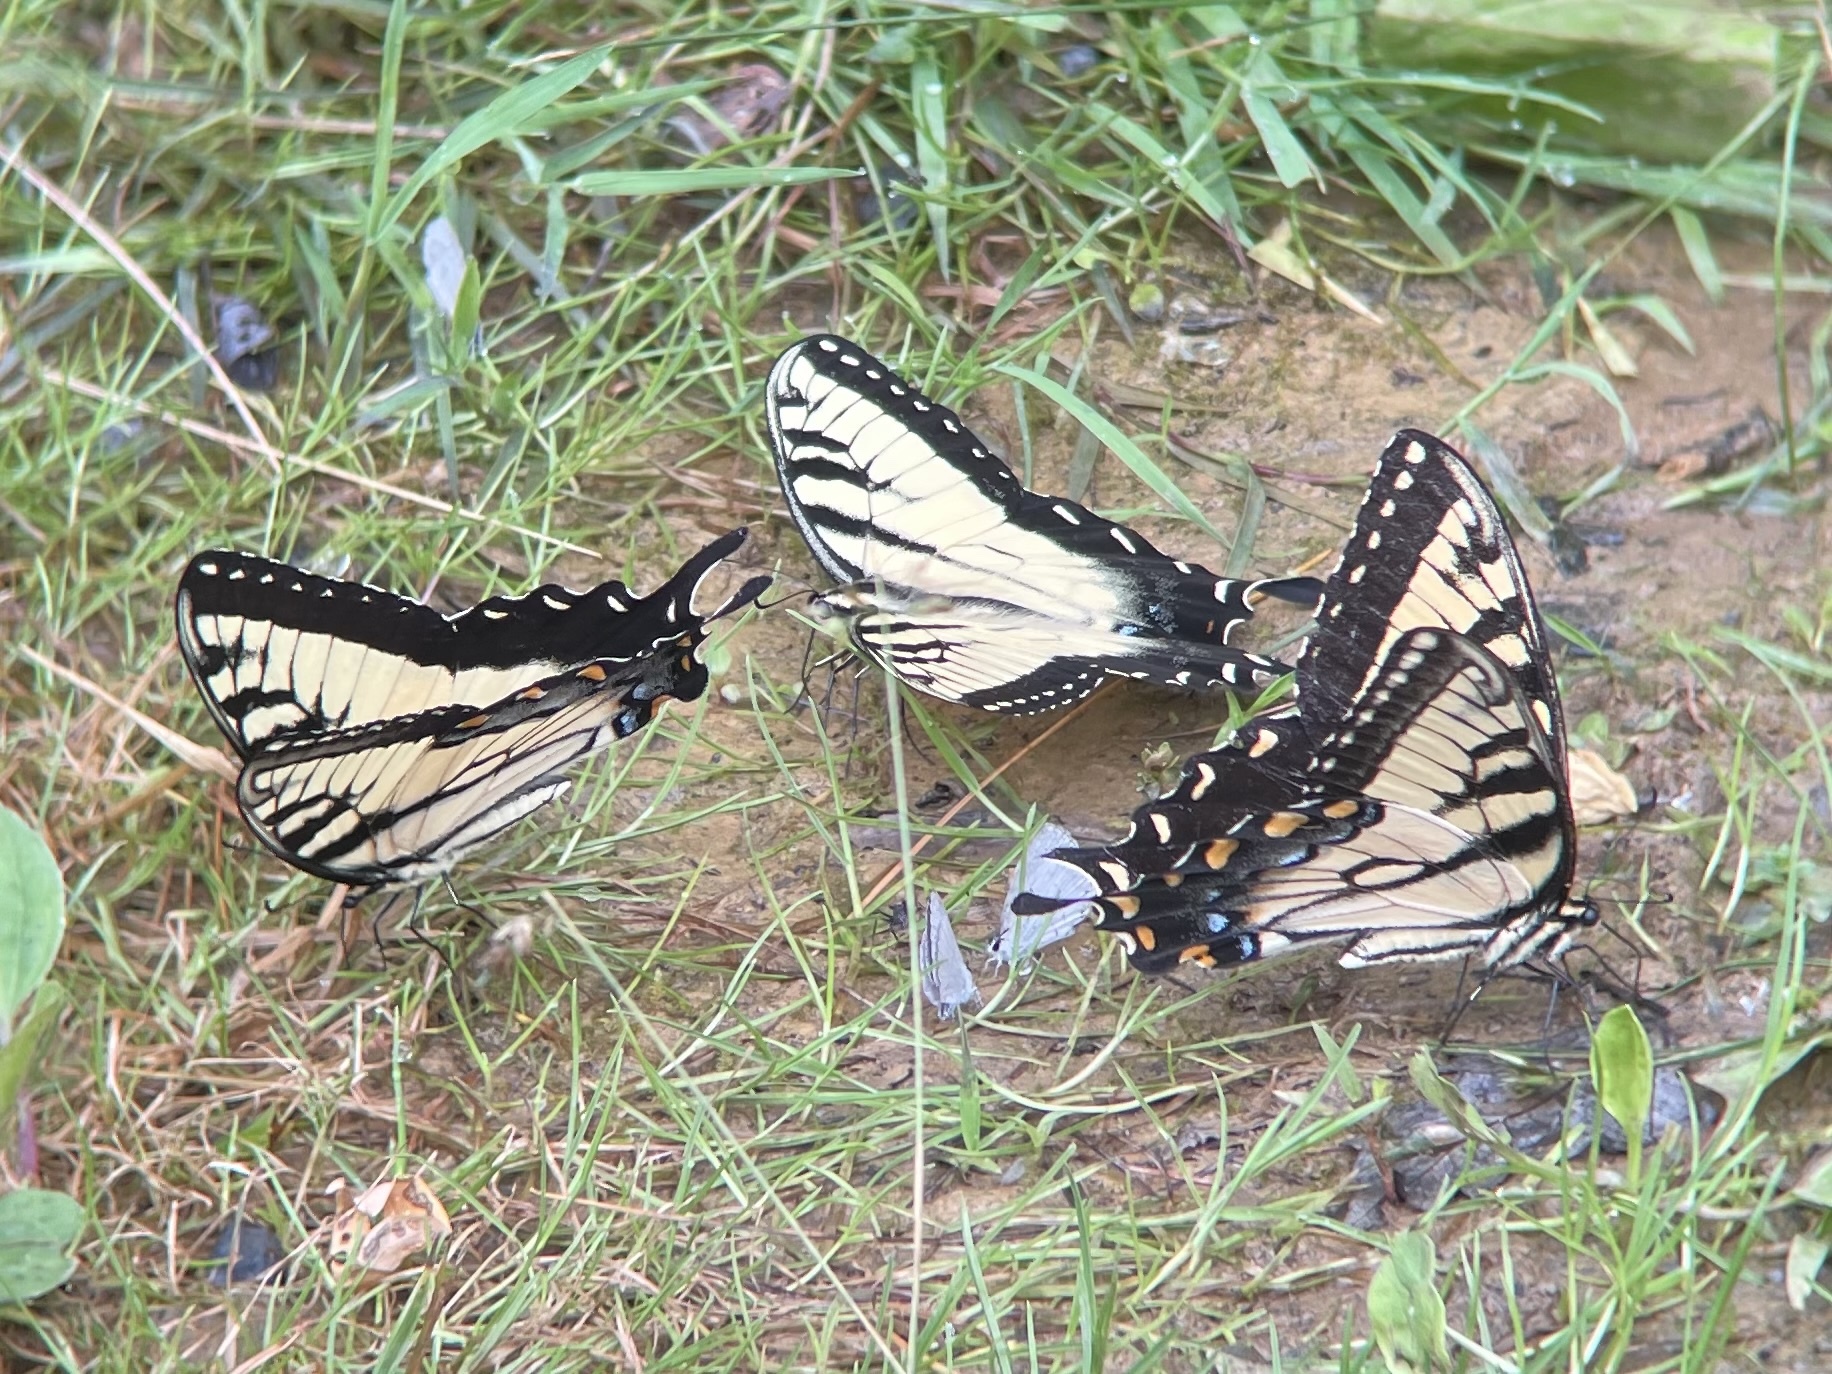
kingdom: Animalia
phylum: Arthropoda
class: Insecta
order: Lepidoptera
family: Papilionidae
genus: Papilio
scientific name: Papilio appalachiensis
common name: Appalachian tiger swallowtail
